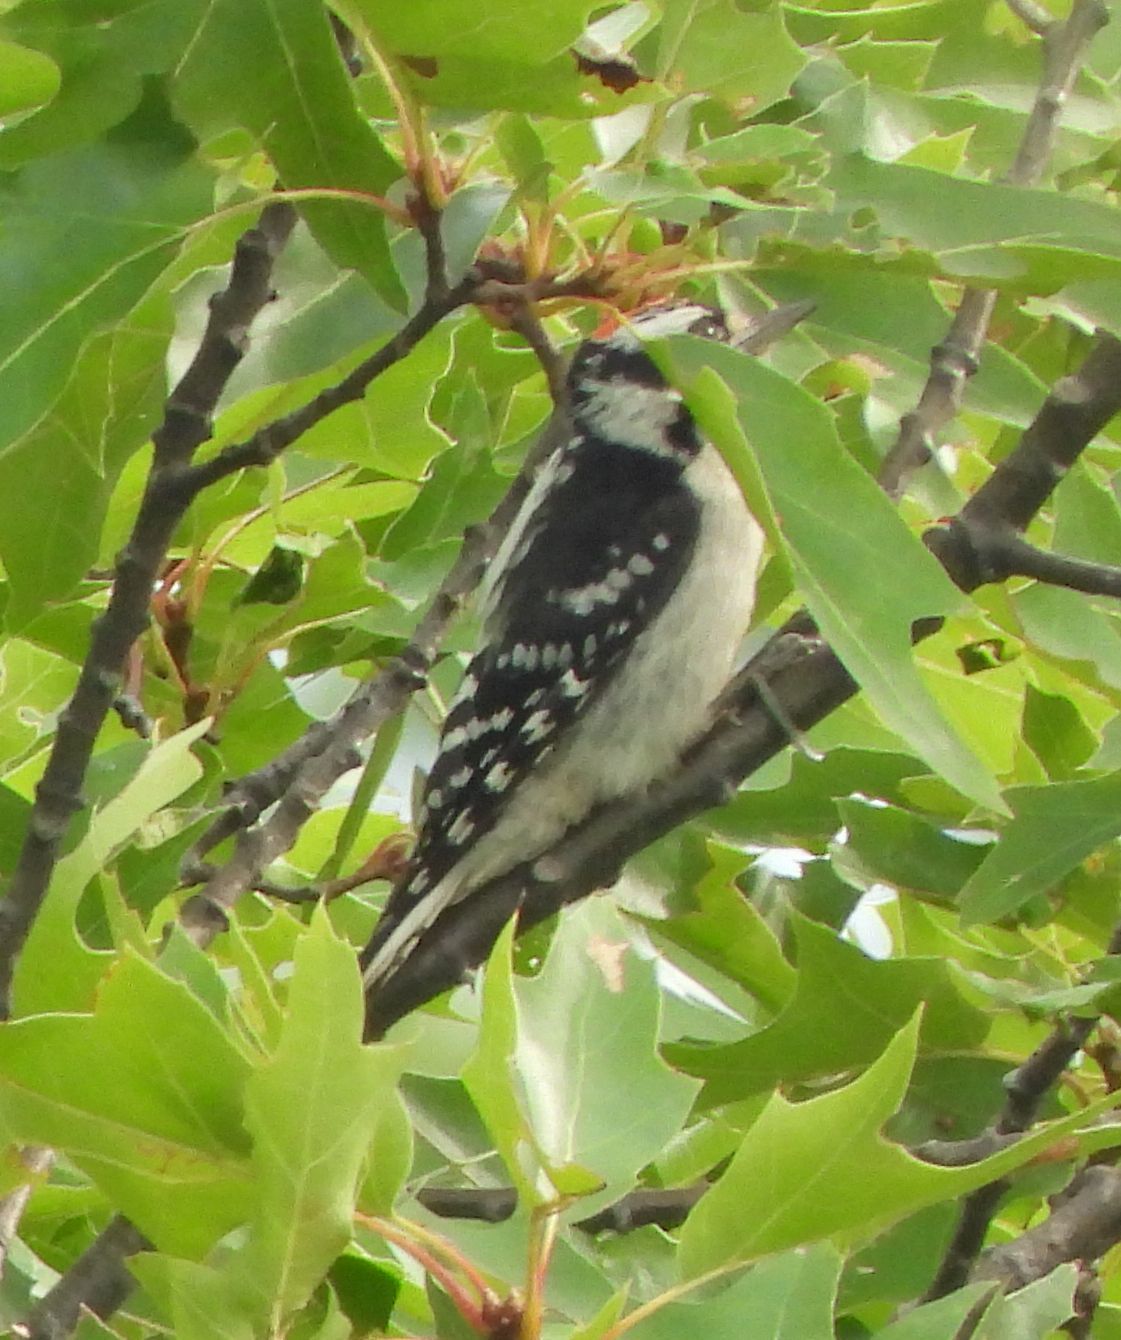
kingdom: Animalia
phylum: Chordata
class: Aves
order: Piciformes
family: Picidae
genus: Dryobates
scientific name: Dryobates pubescens
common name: Downy woodpecker
